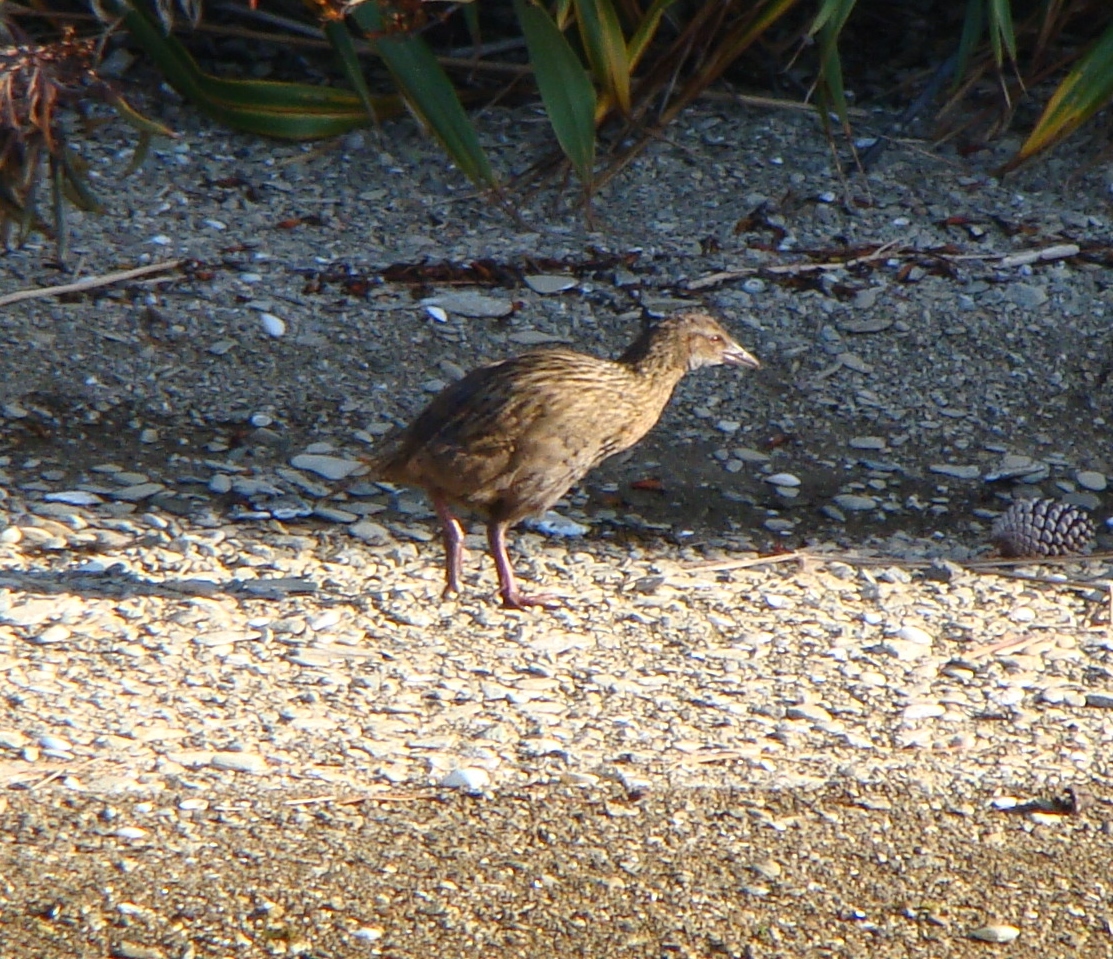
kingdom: Animalia
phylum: Chordata
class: Aves
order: Gruiformes
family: Rallidae
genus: Gallirallus
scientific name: Gallirallus australis
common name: Weka
